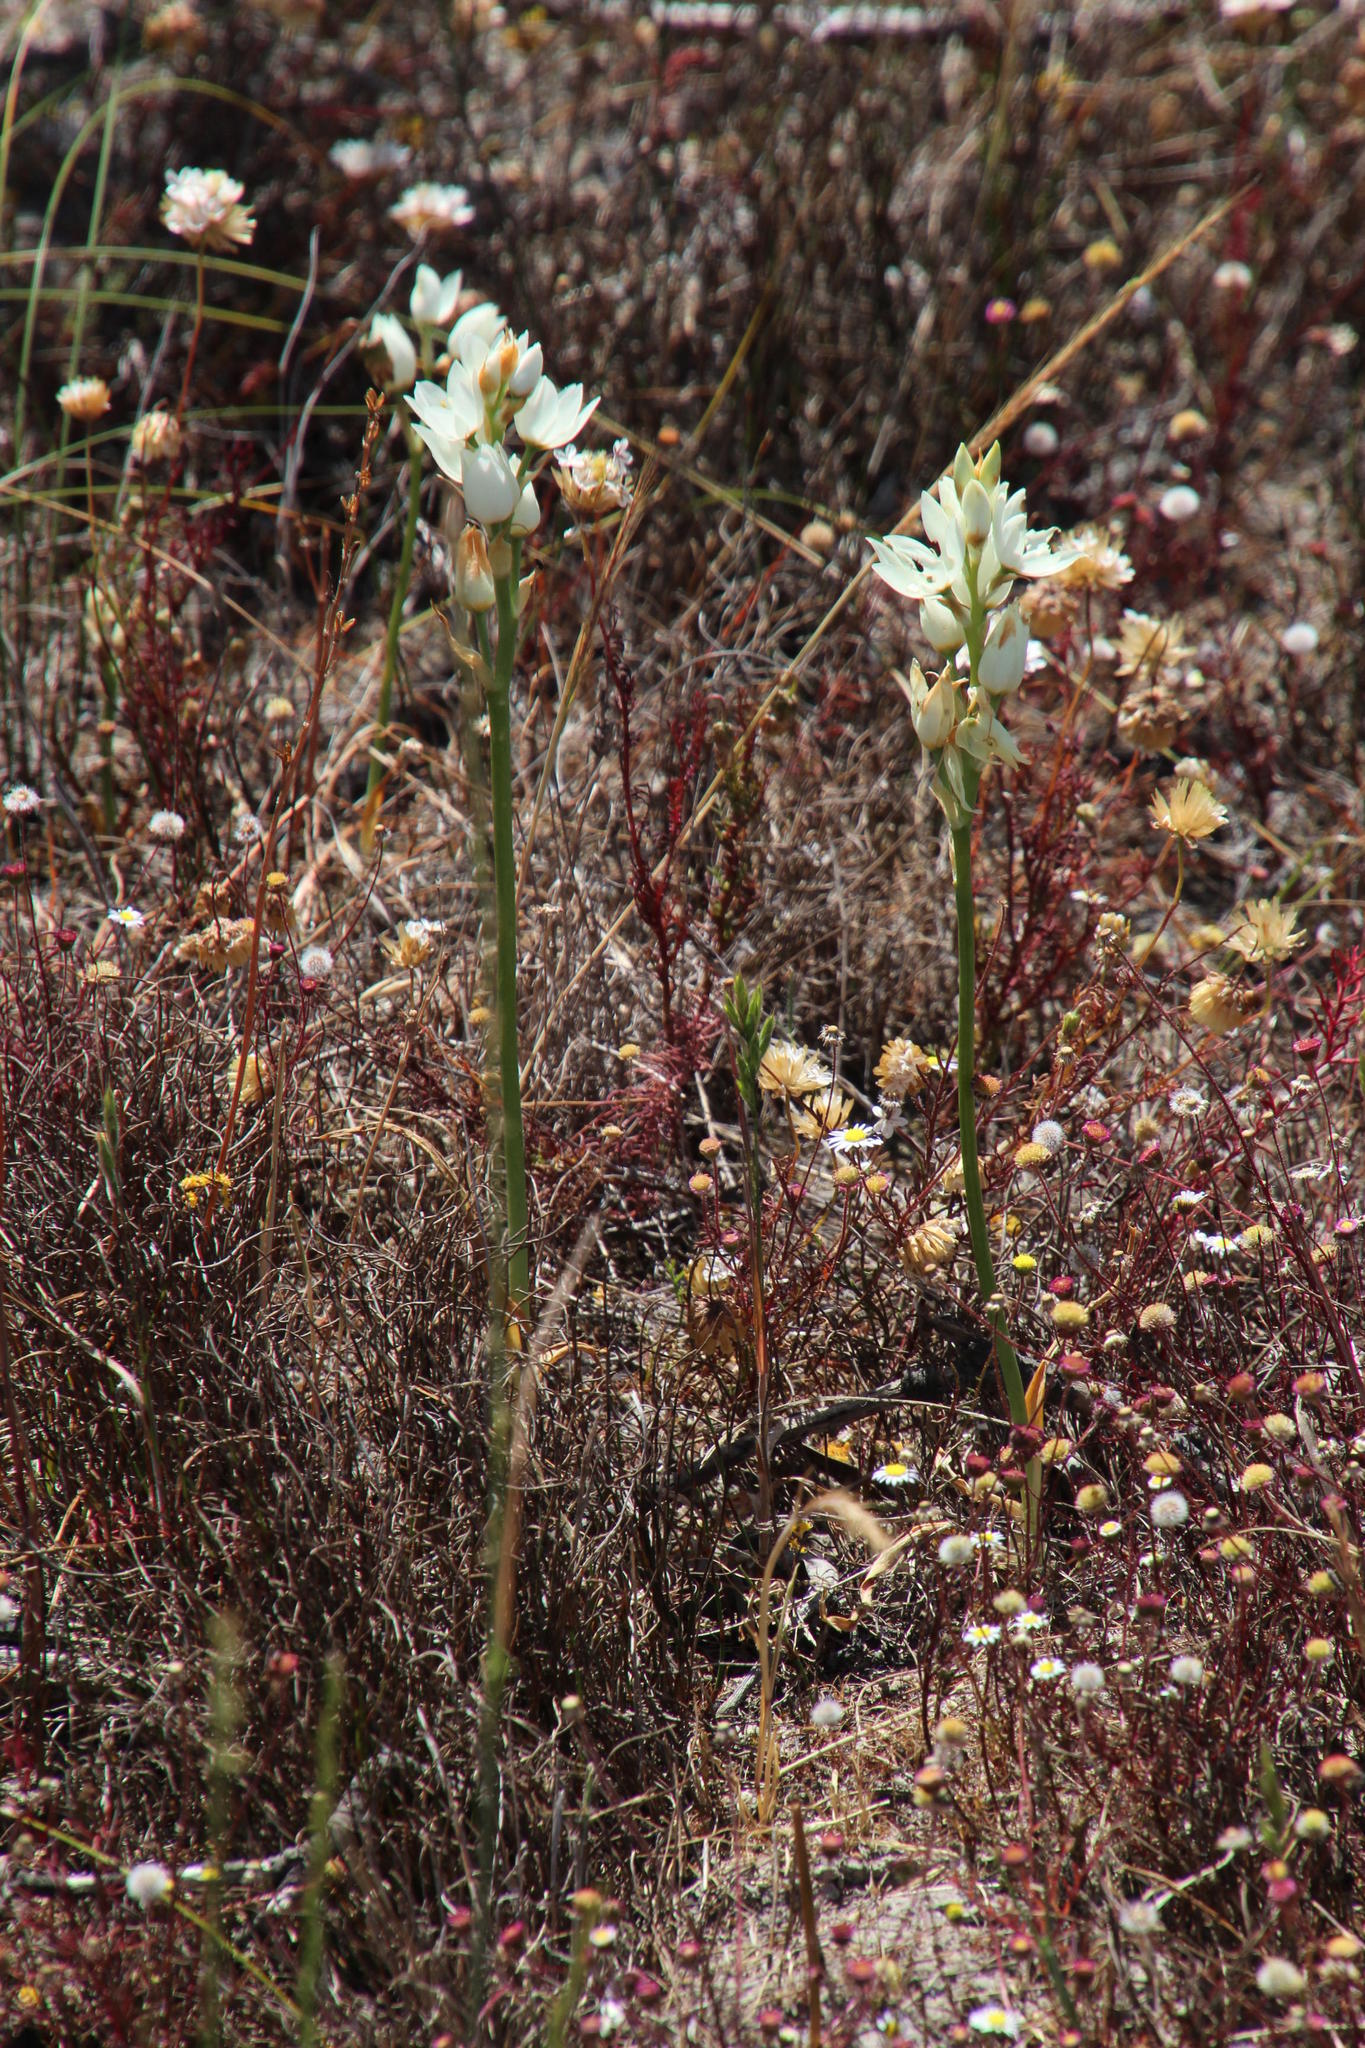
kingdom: Plantae
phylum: Tracheophyta
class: Liliopsida
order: Asparagales
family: Asparagaceae
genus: Ornithogalum
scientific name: Ornithogalum thyrsoides
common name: Chincherinchee
